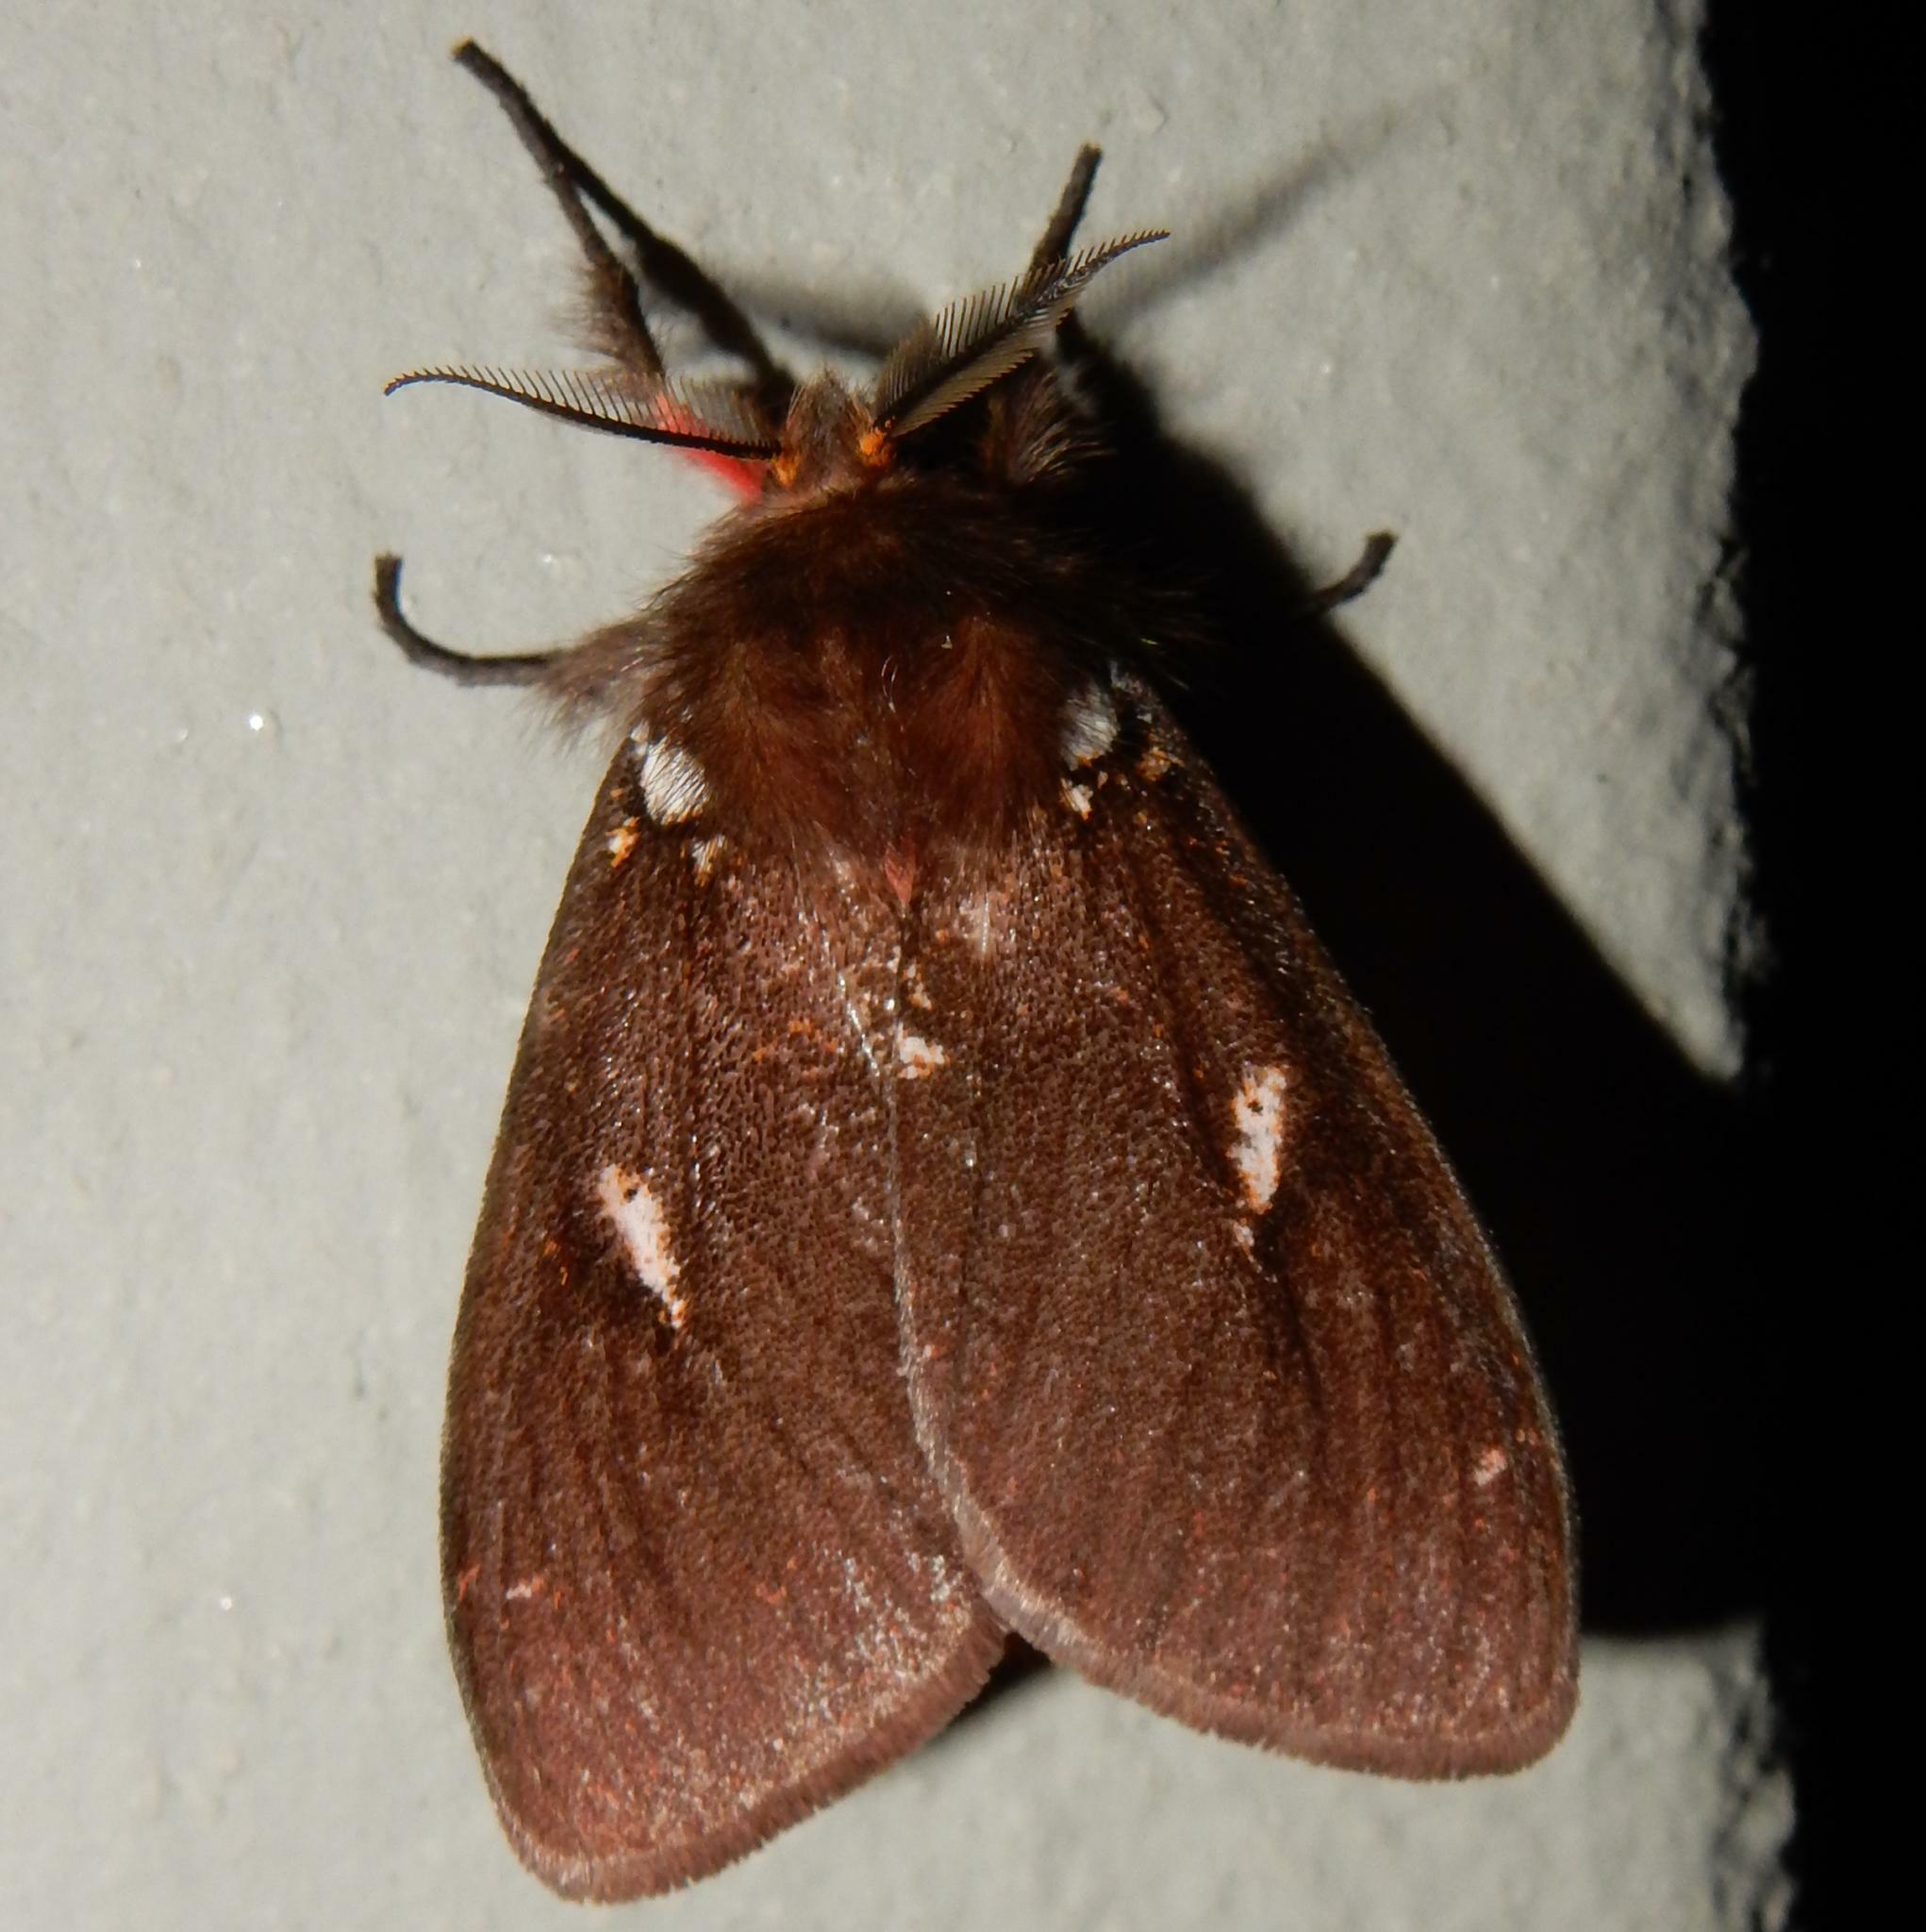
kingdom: Animalia
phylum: Arthropoda
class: Insecta
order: Lepidoptera
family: Erebidae
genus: Lymantria
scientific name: Lymantria Morasa modesta
